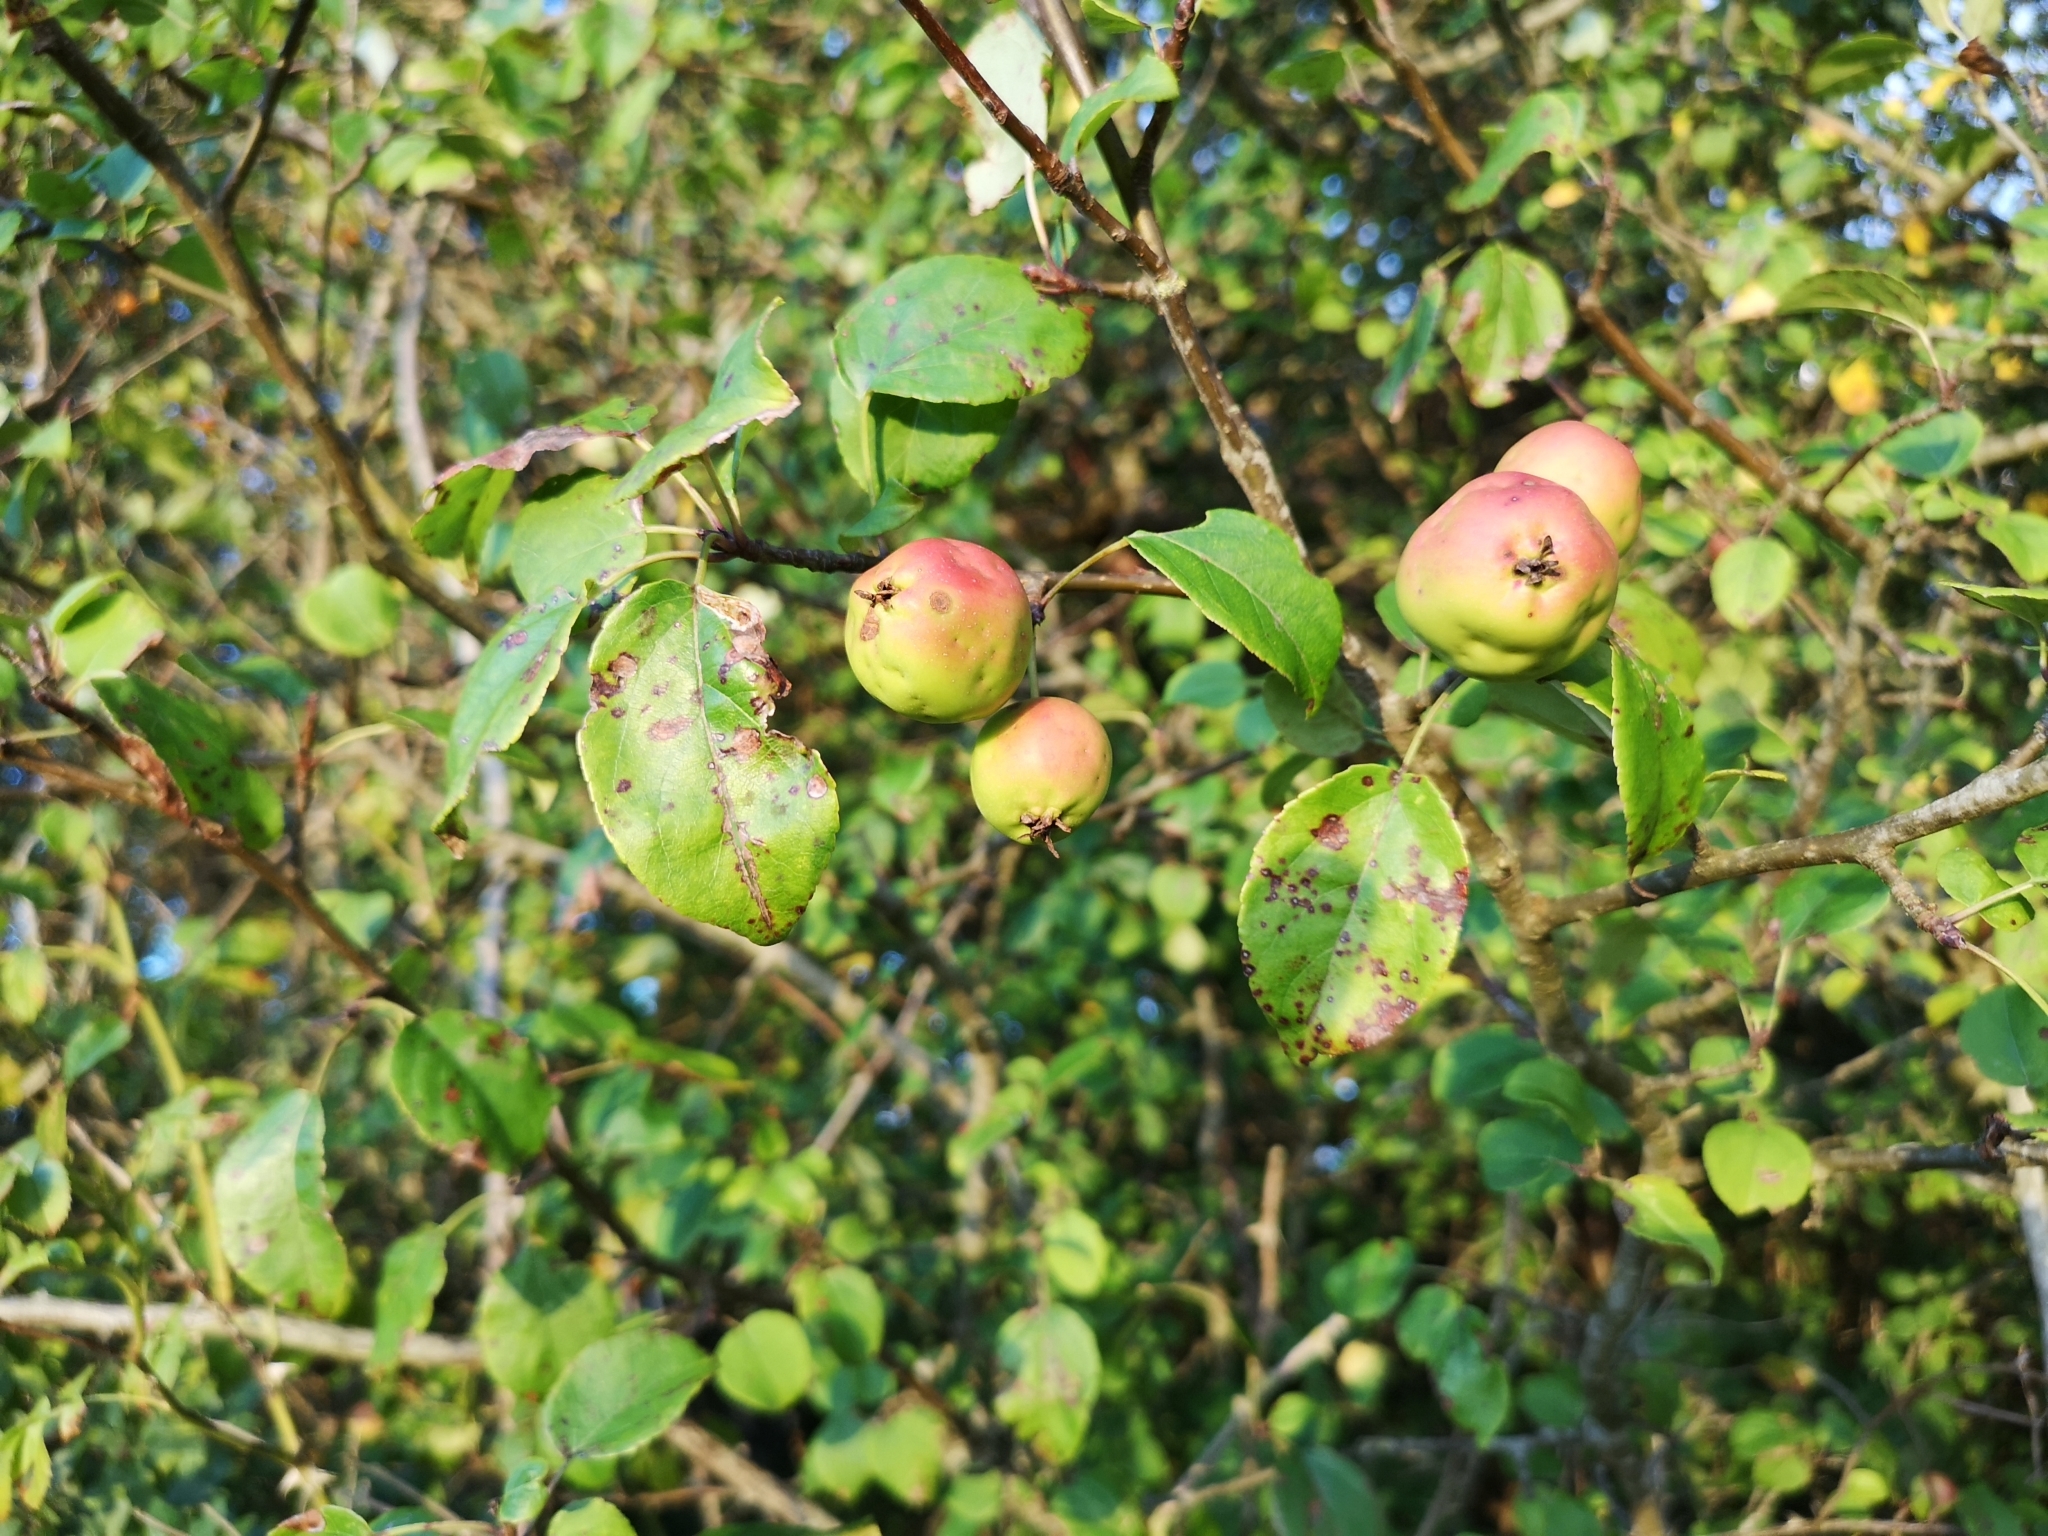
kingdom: Plantae
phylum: Tracheophyta
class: Magnoliopsida
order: Rosales
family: Rosaceae
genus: Malus
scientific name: Malus sylvestris
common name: Crab apple
